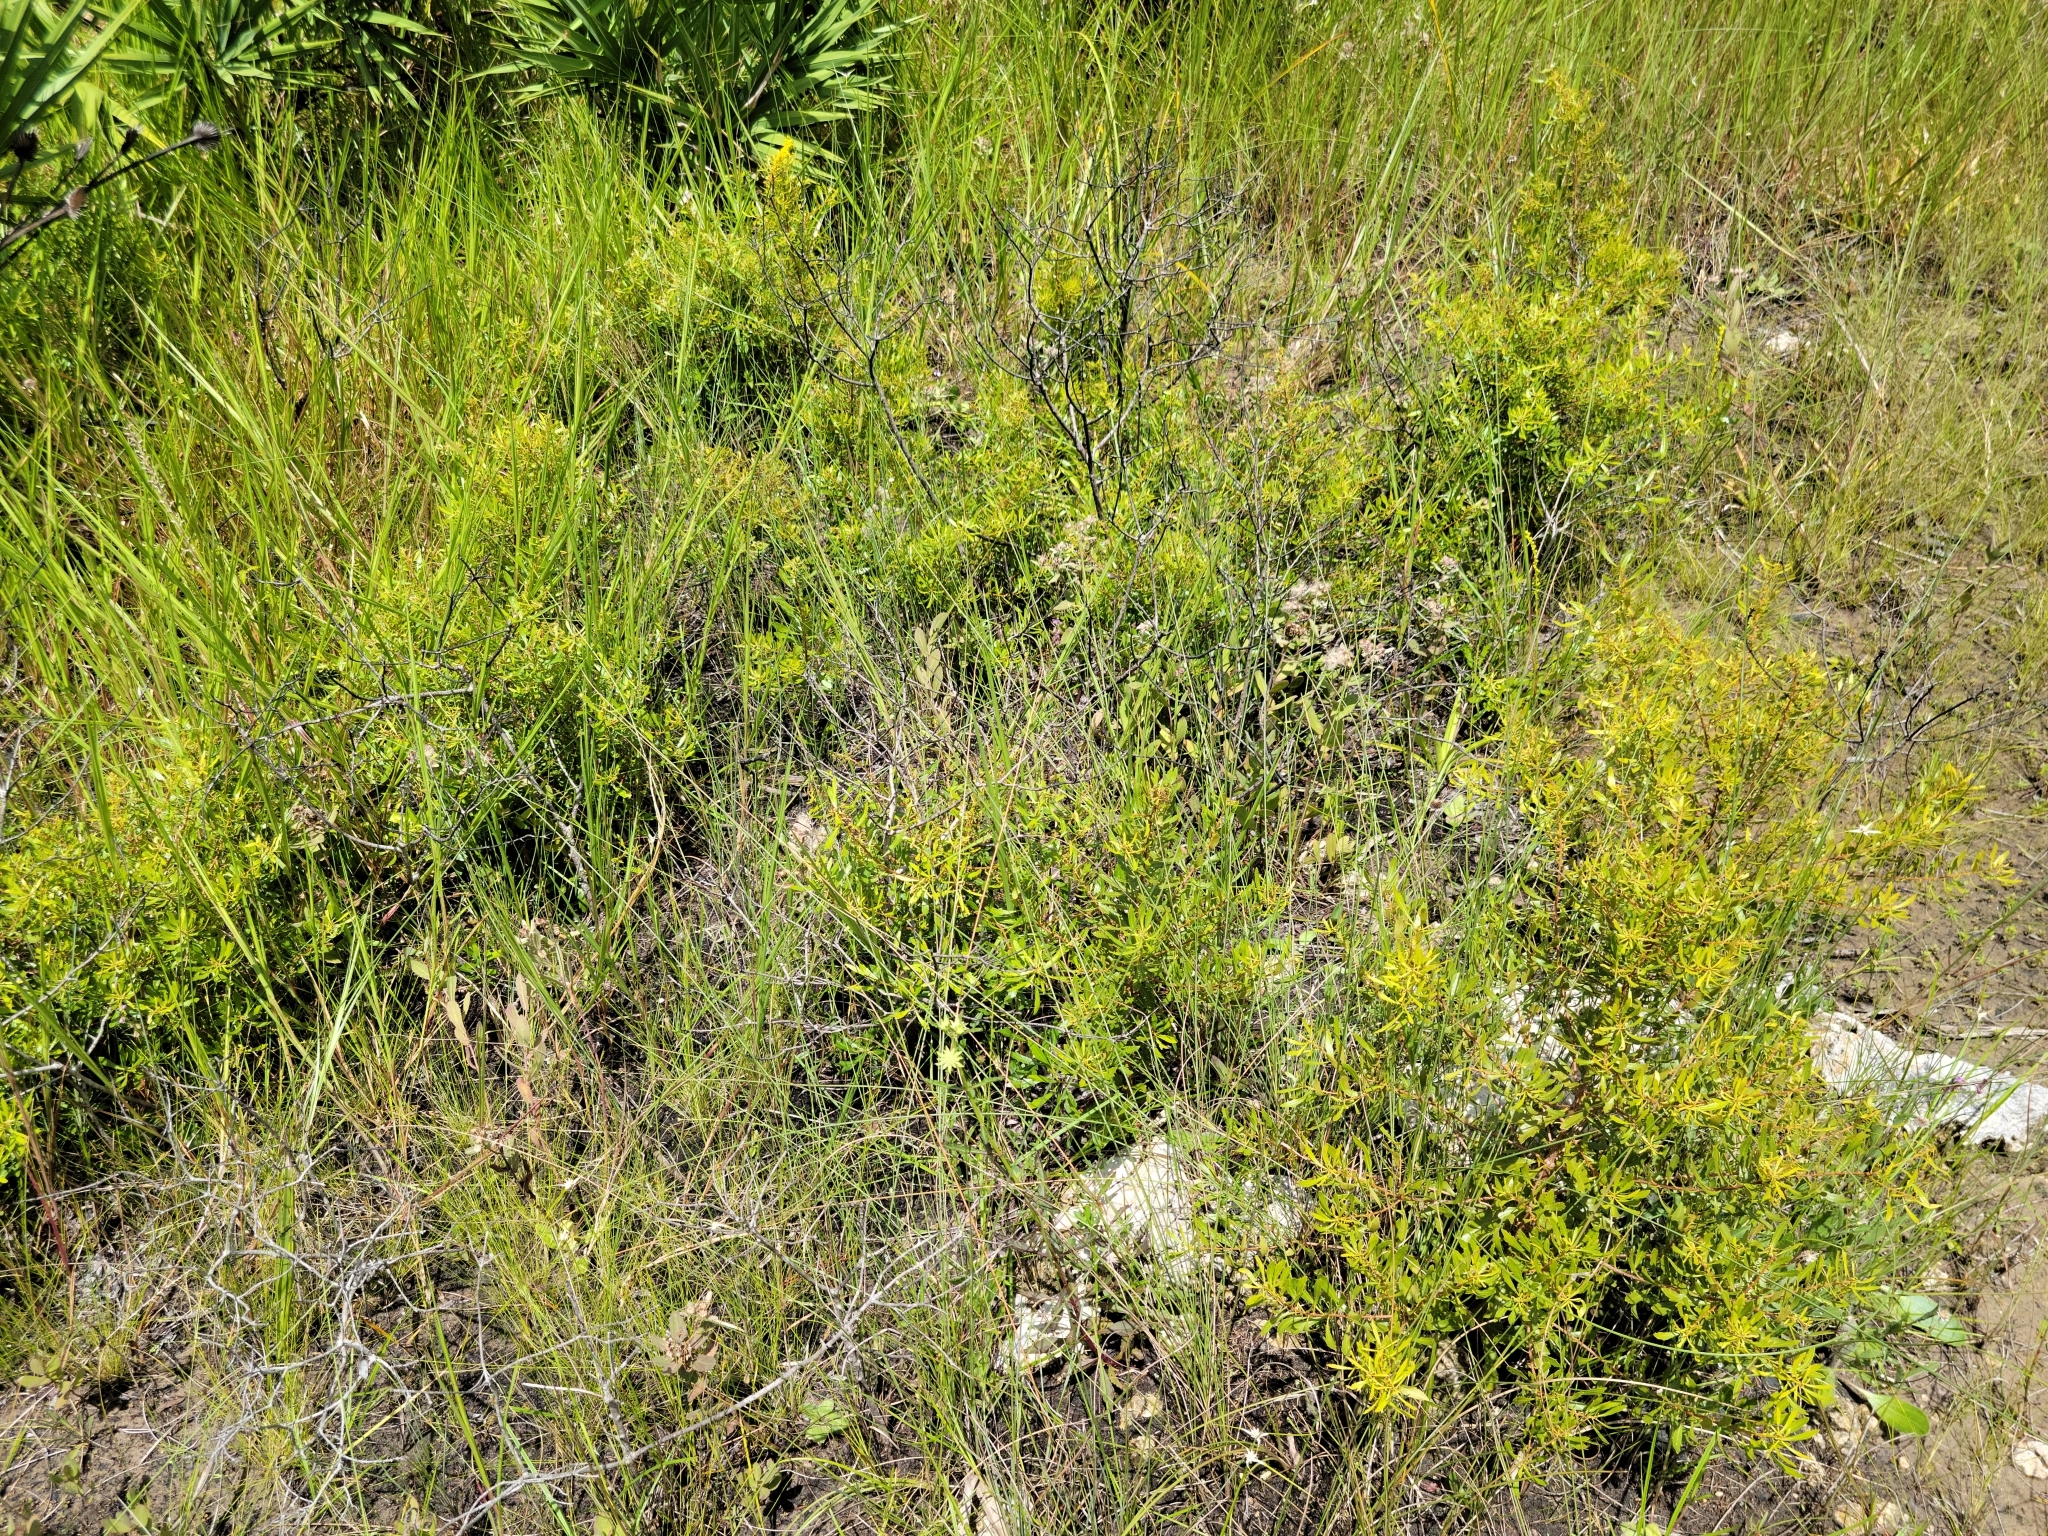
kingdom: Plantae
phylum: Tracheophyta
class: Magnoliopsida
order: Fagales
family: Myricaceae
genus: Morella
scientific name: Morella cerifera
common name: Wax myrtle
